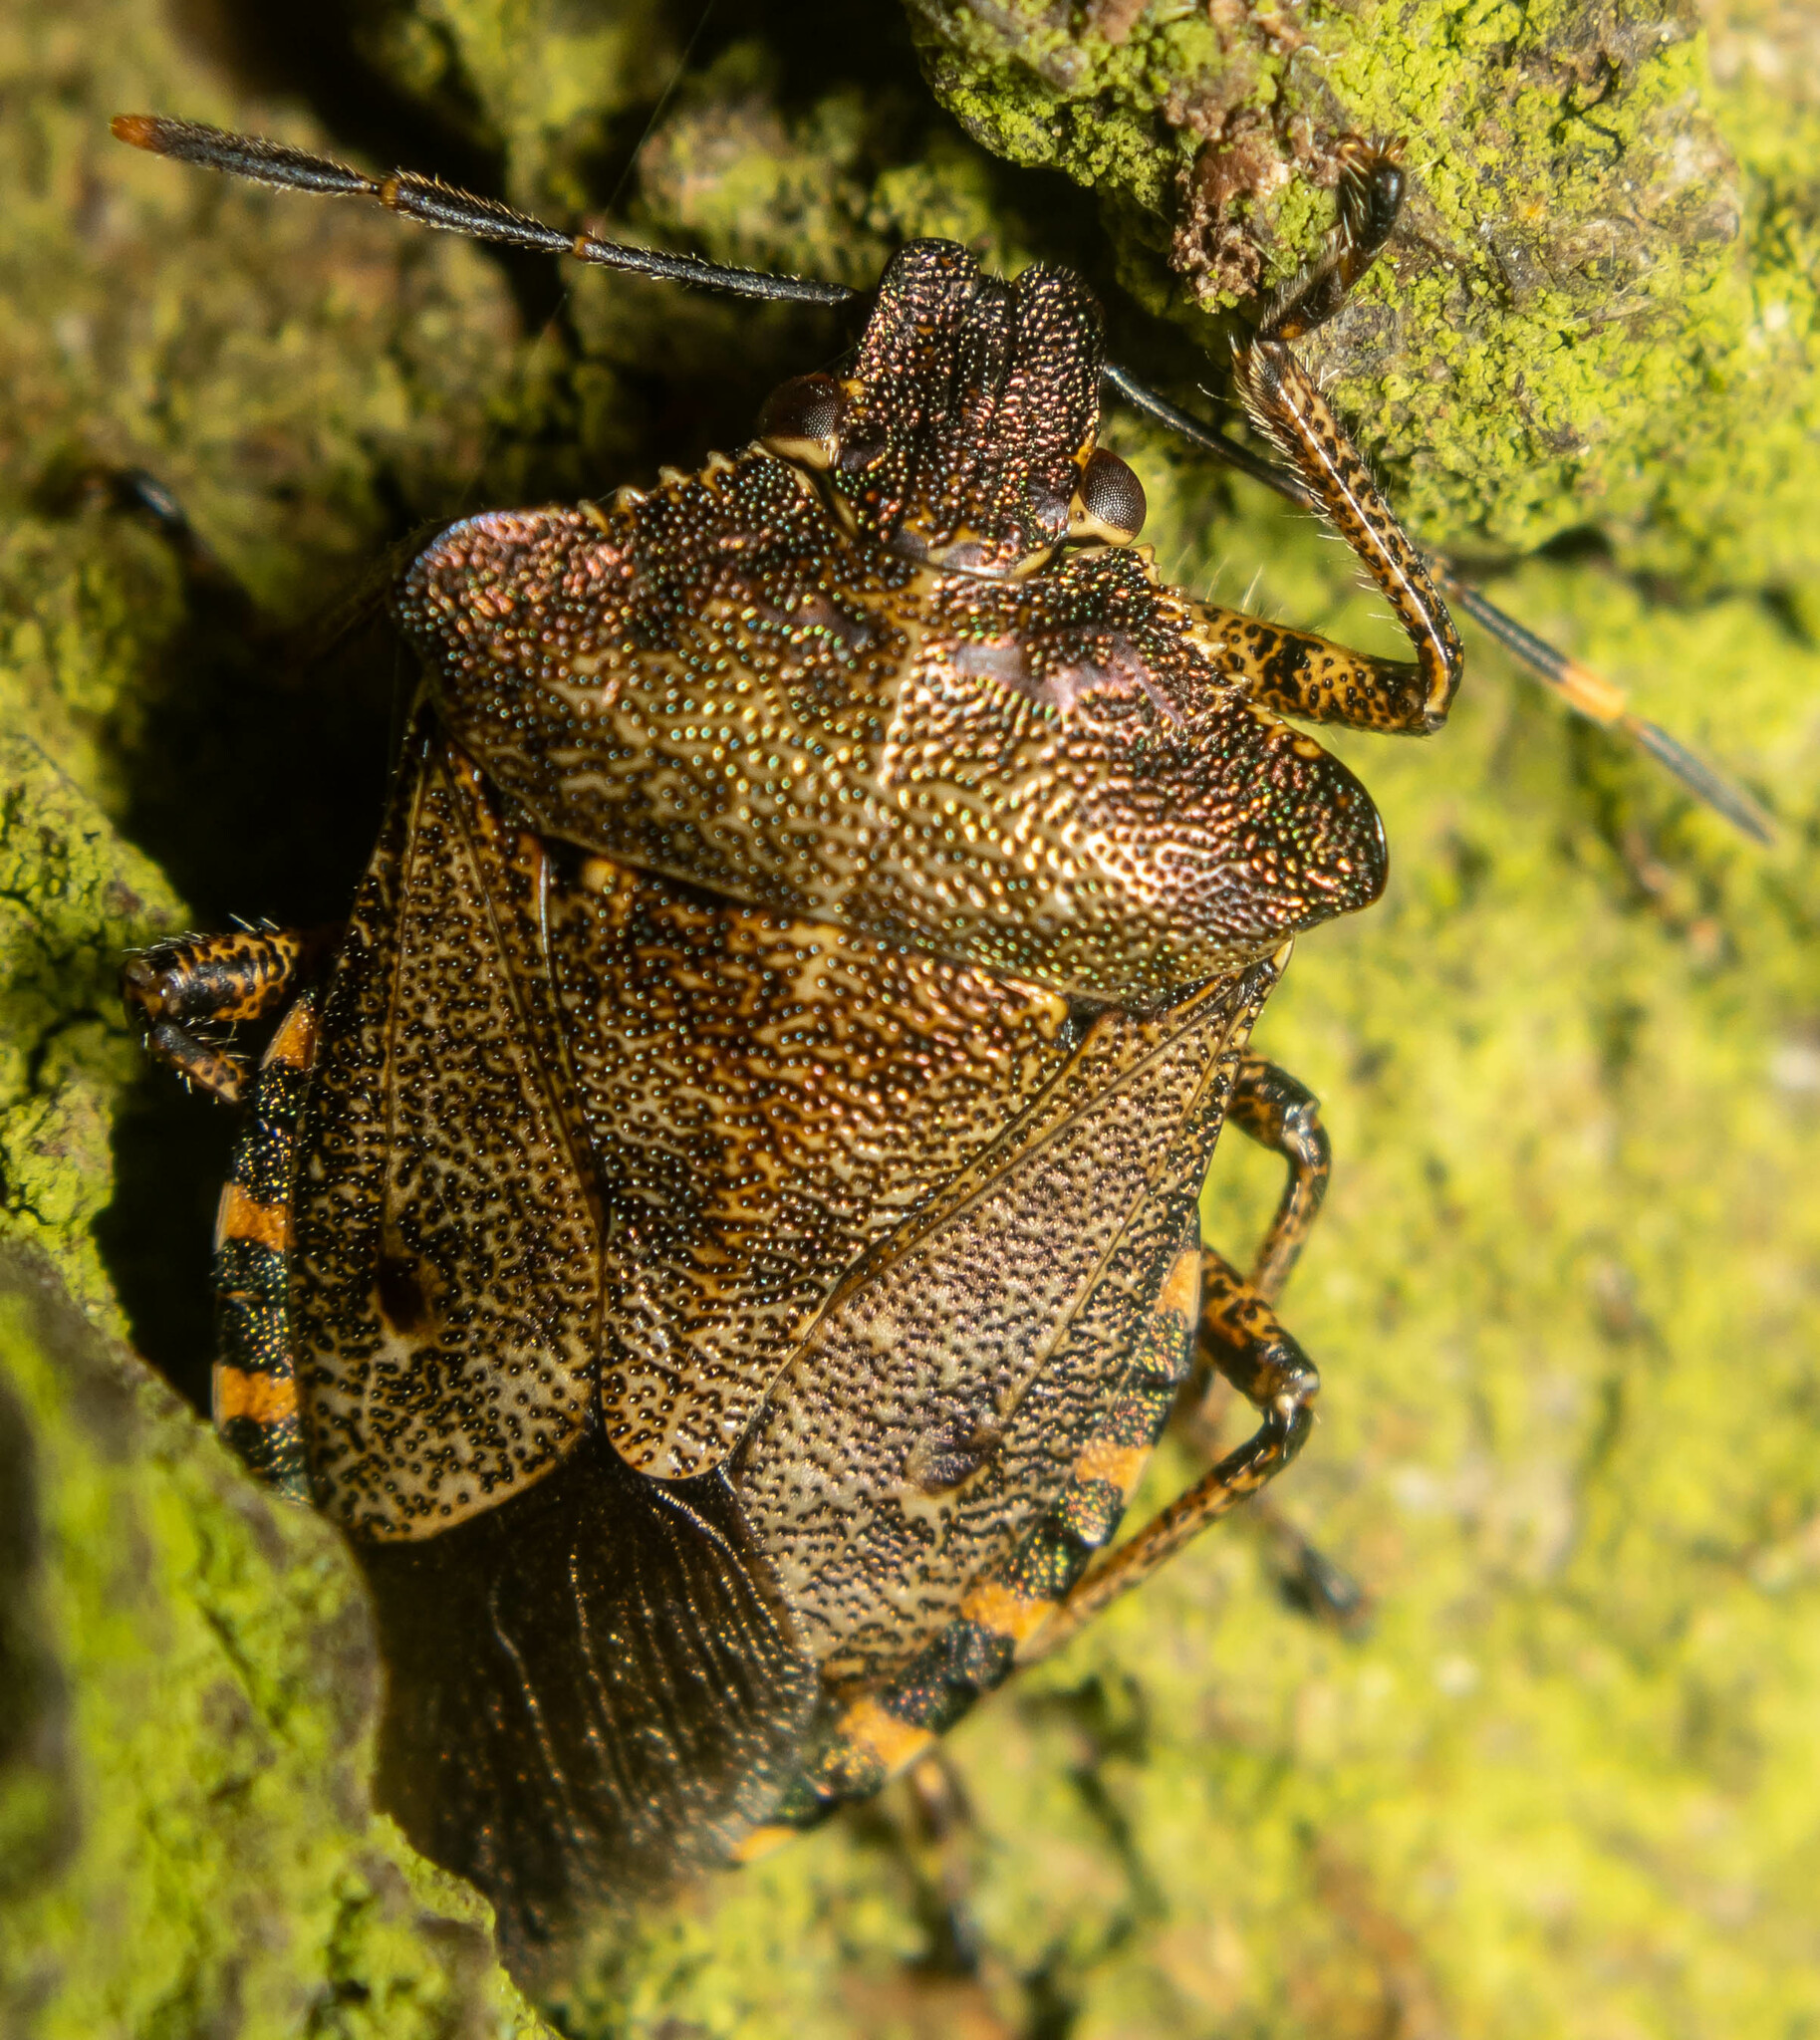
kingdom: Animalia
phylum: Arthropoda
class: Insecta
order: Hemiptera
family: Pentatomidae
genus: Troilus
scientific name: Troilus luridus
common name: Bronze shieldbug
